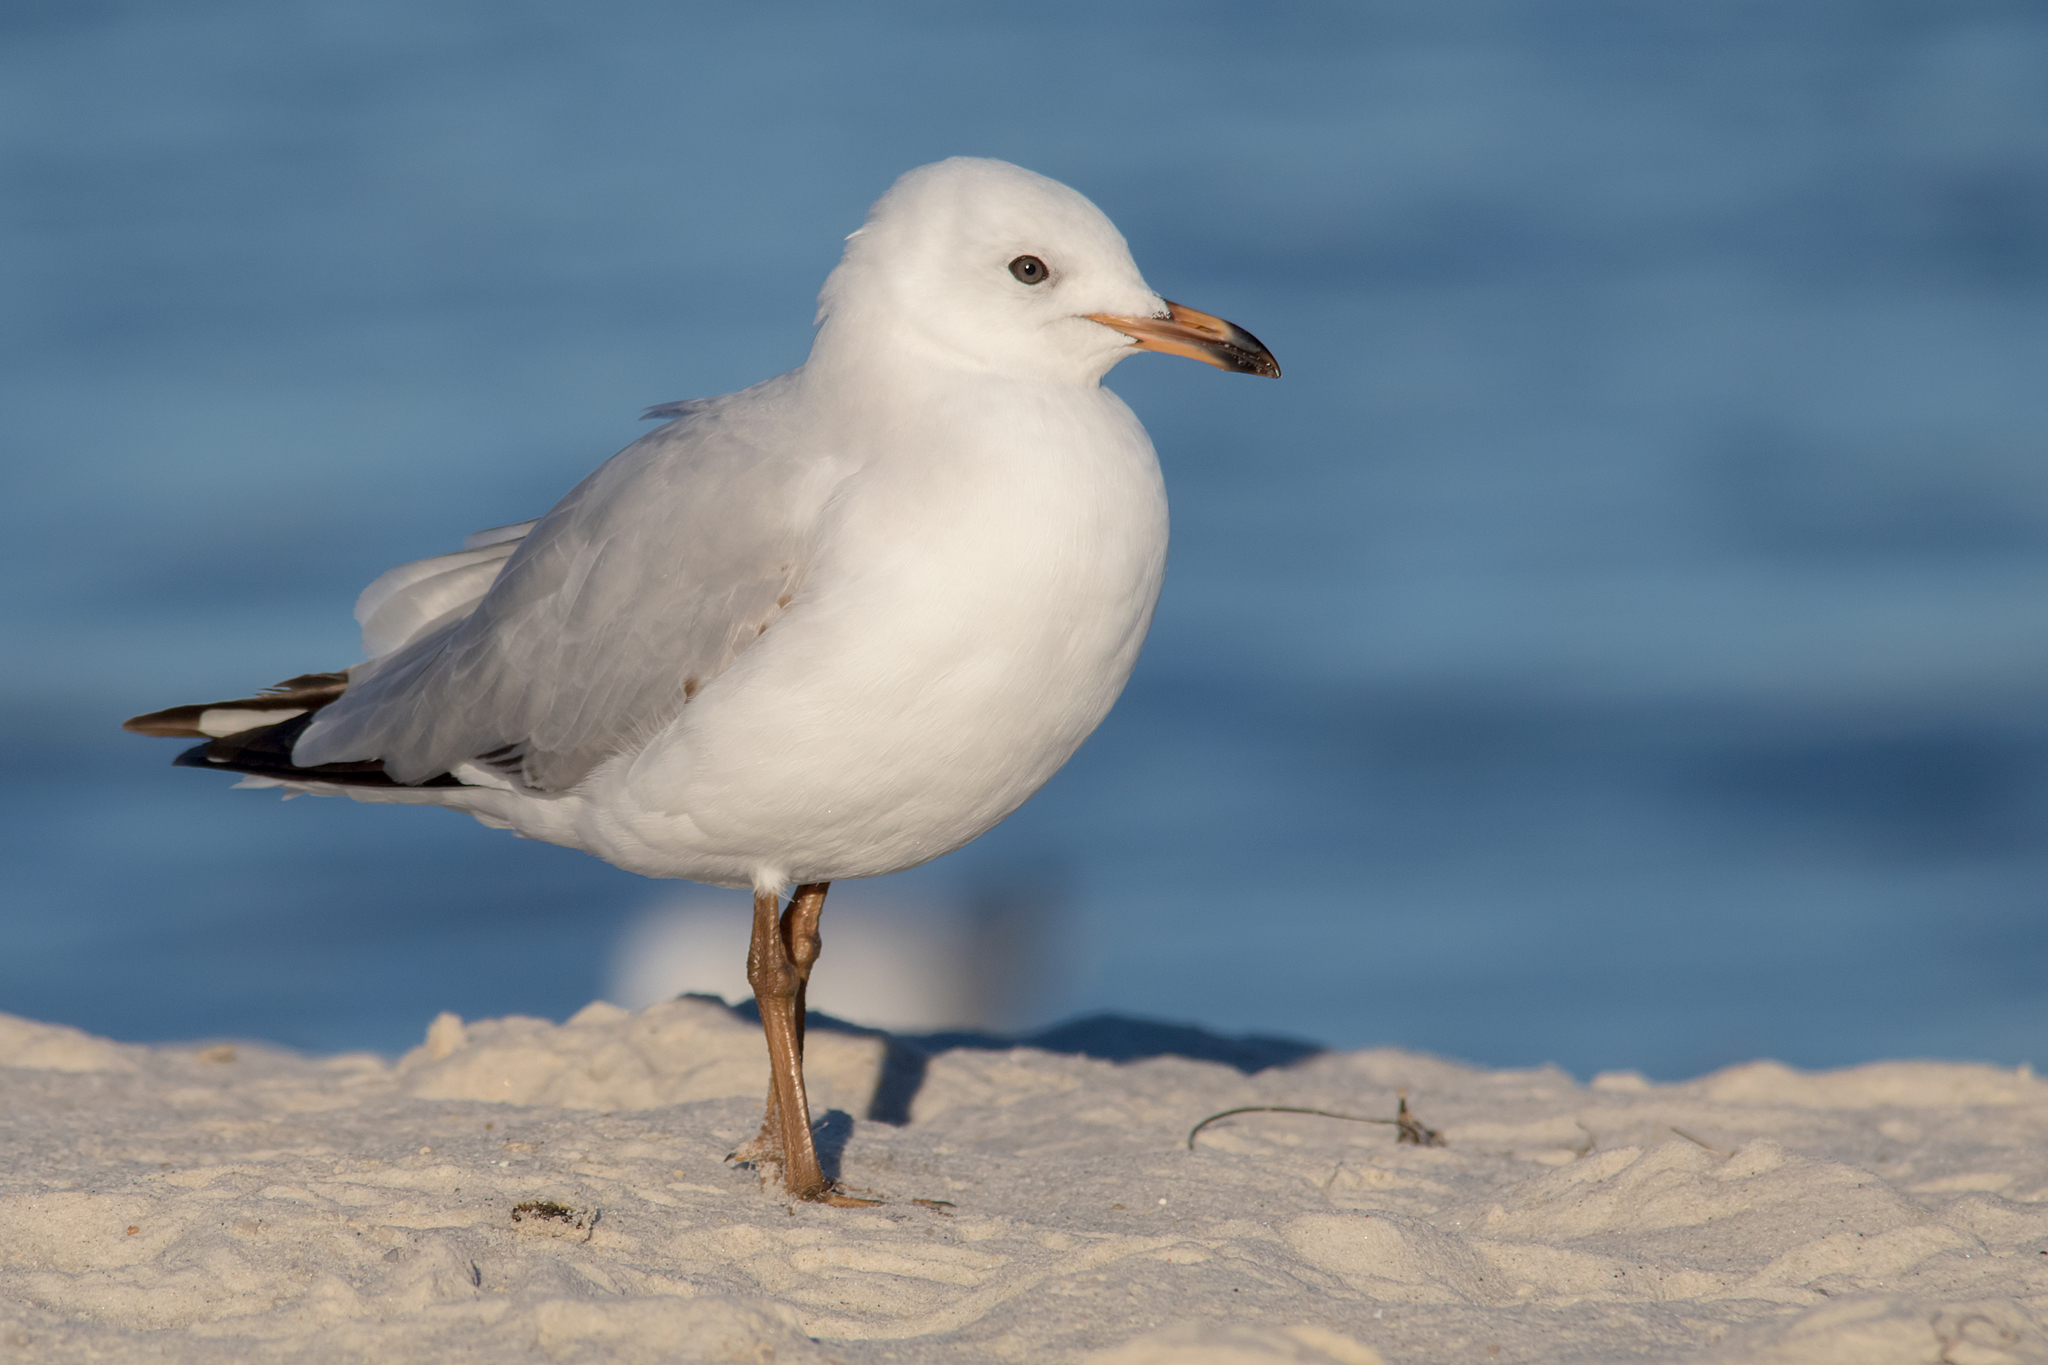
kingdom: Animalia
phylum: Chordata
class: Aves
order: Charadriiformes
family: Laridae
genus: Chroicocephalus
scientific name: Chroicocephalus novaehollandiae
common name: Silver gull
